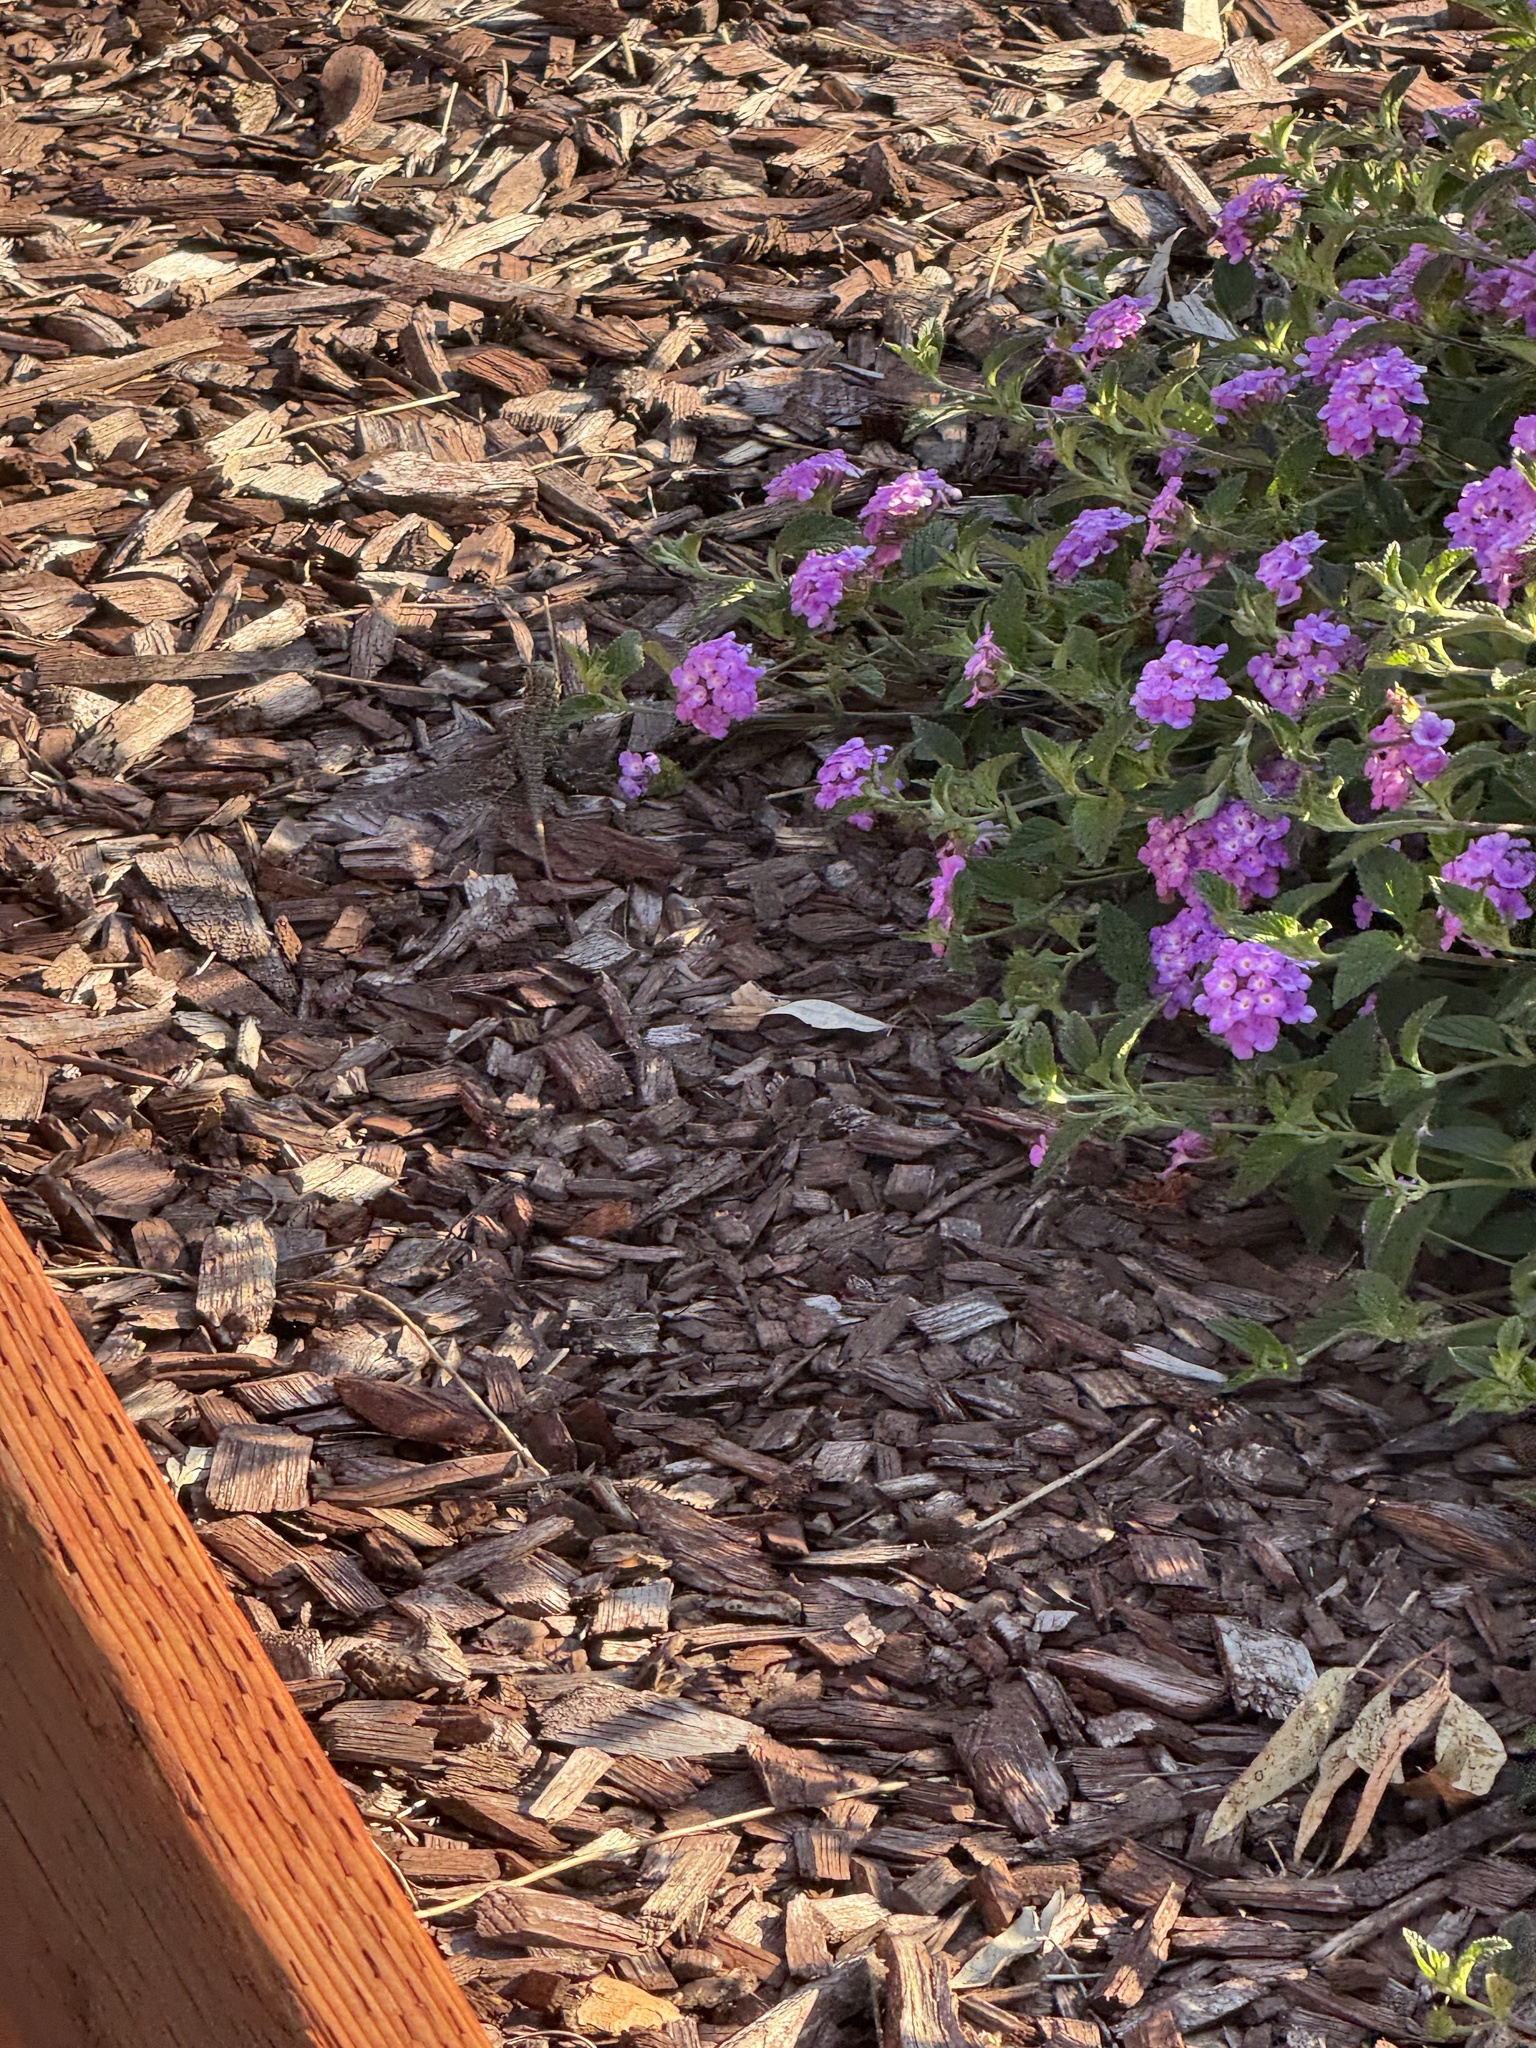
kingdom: Animalia
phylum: Chordata
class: Squamata
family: Phrynosomatidae
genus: Uta
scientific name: Uta stansburiana
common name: Side-blotched lizard
